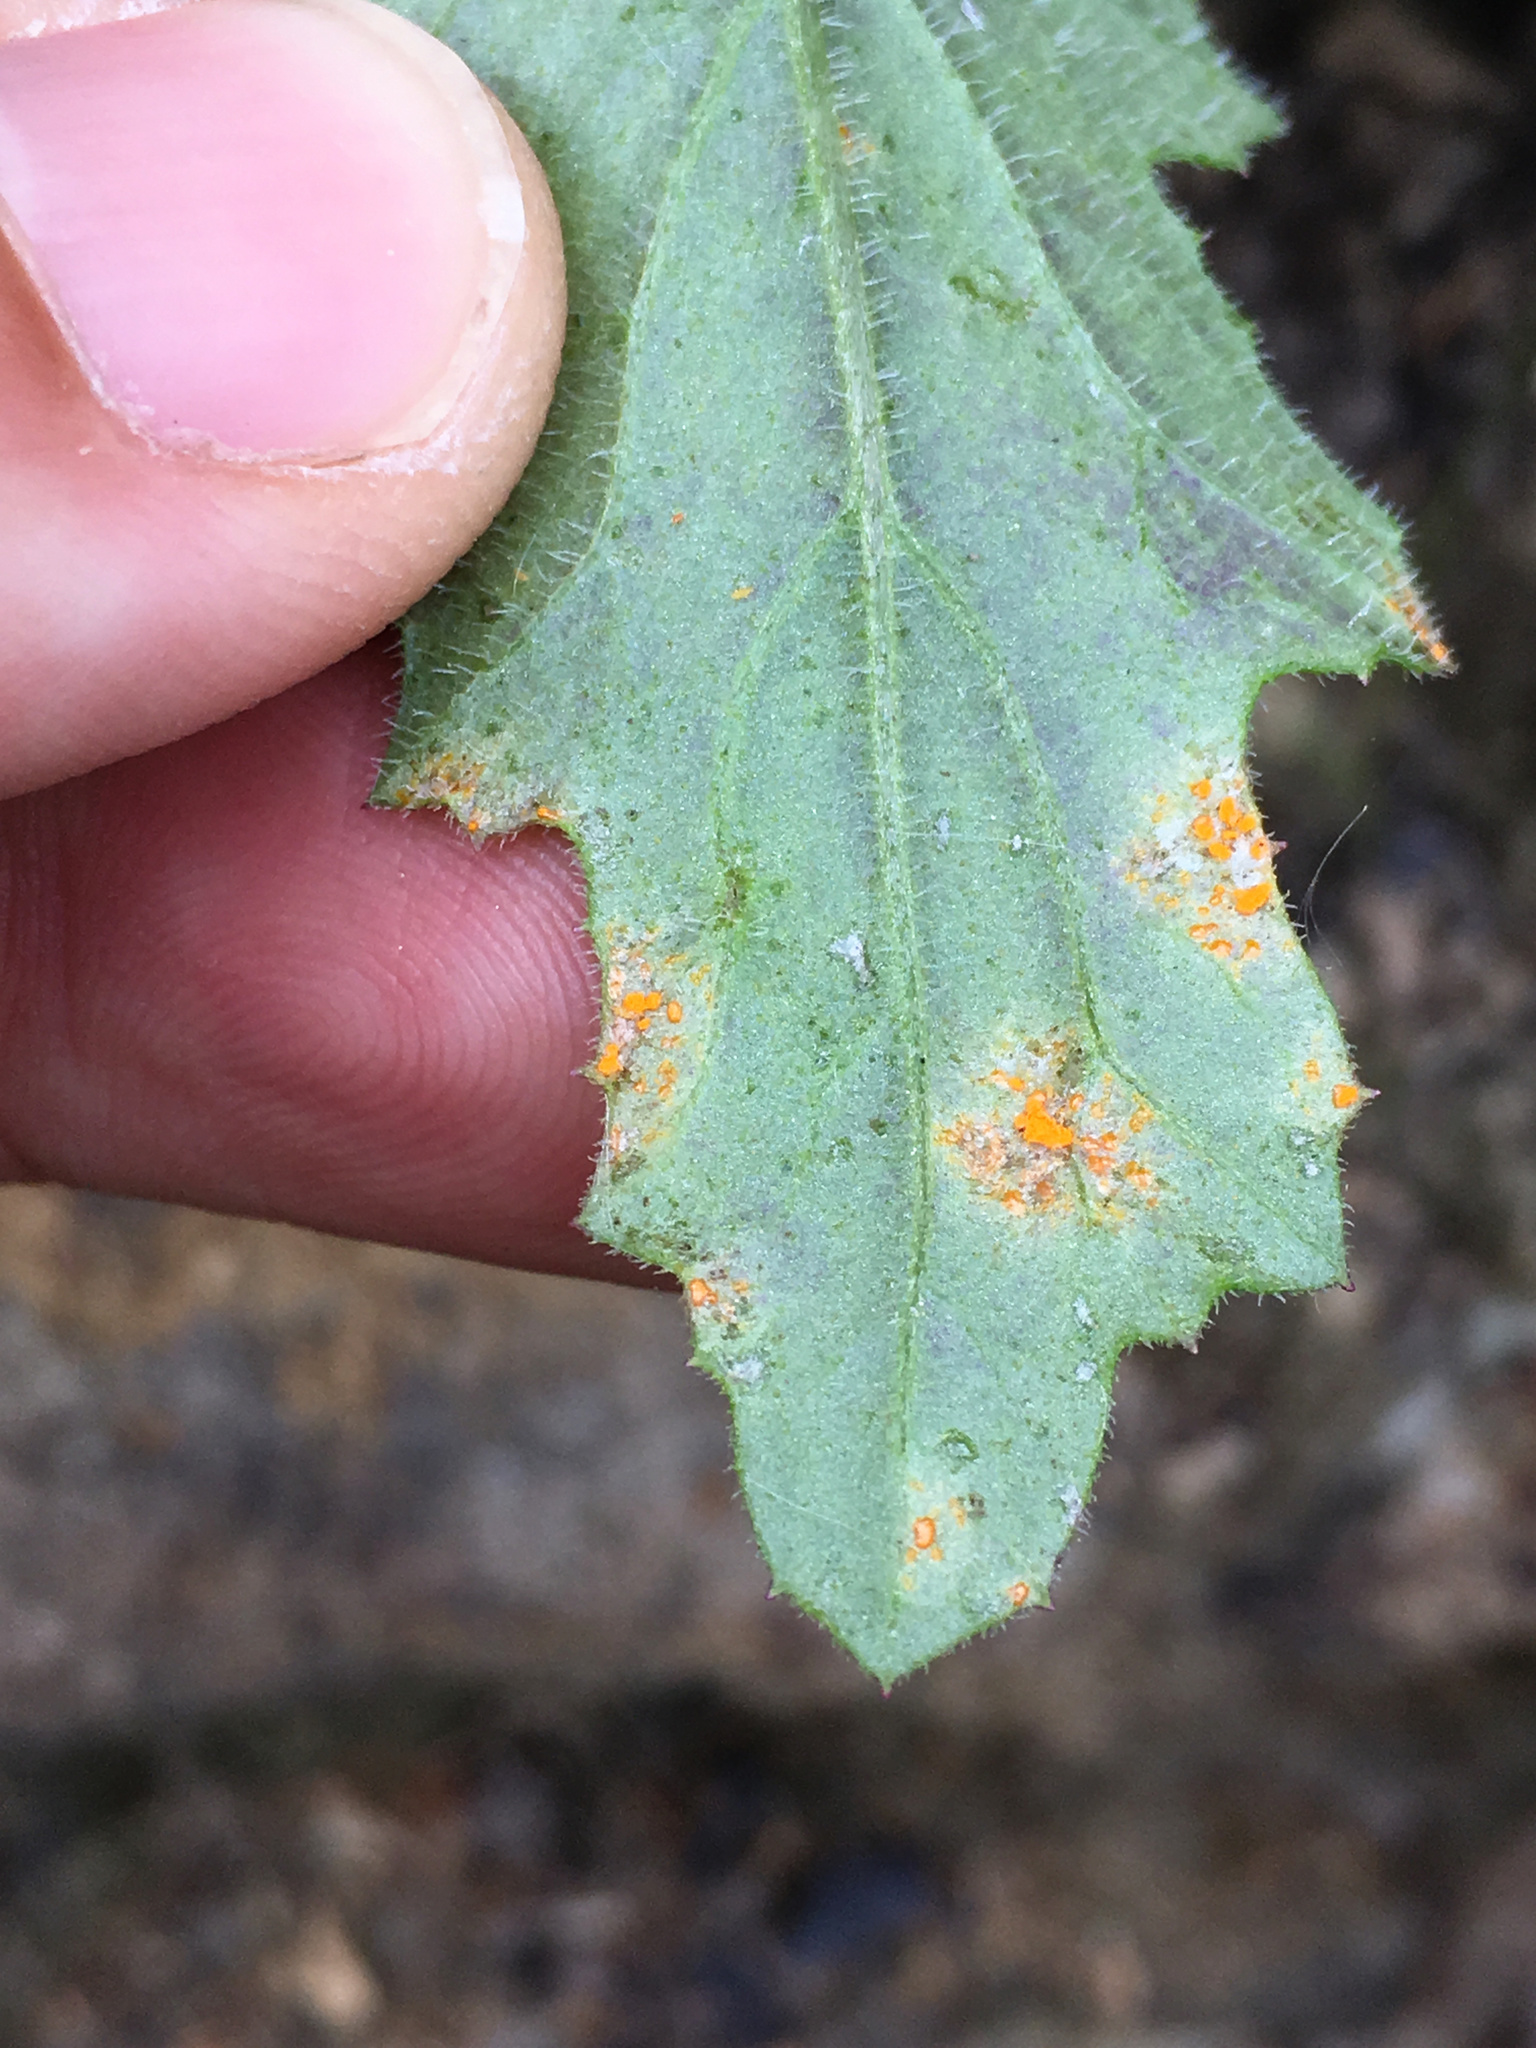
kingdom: Fungi
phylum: Basidiomycota
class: Pucciniomycetes
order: Pucciniales
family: Coleosporiaceae
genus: Coleosporium
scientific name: Coleosporium tussilaginis
